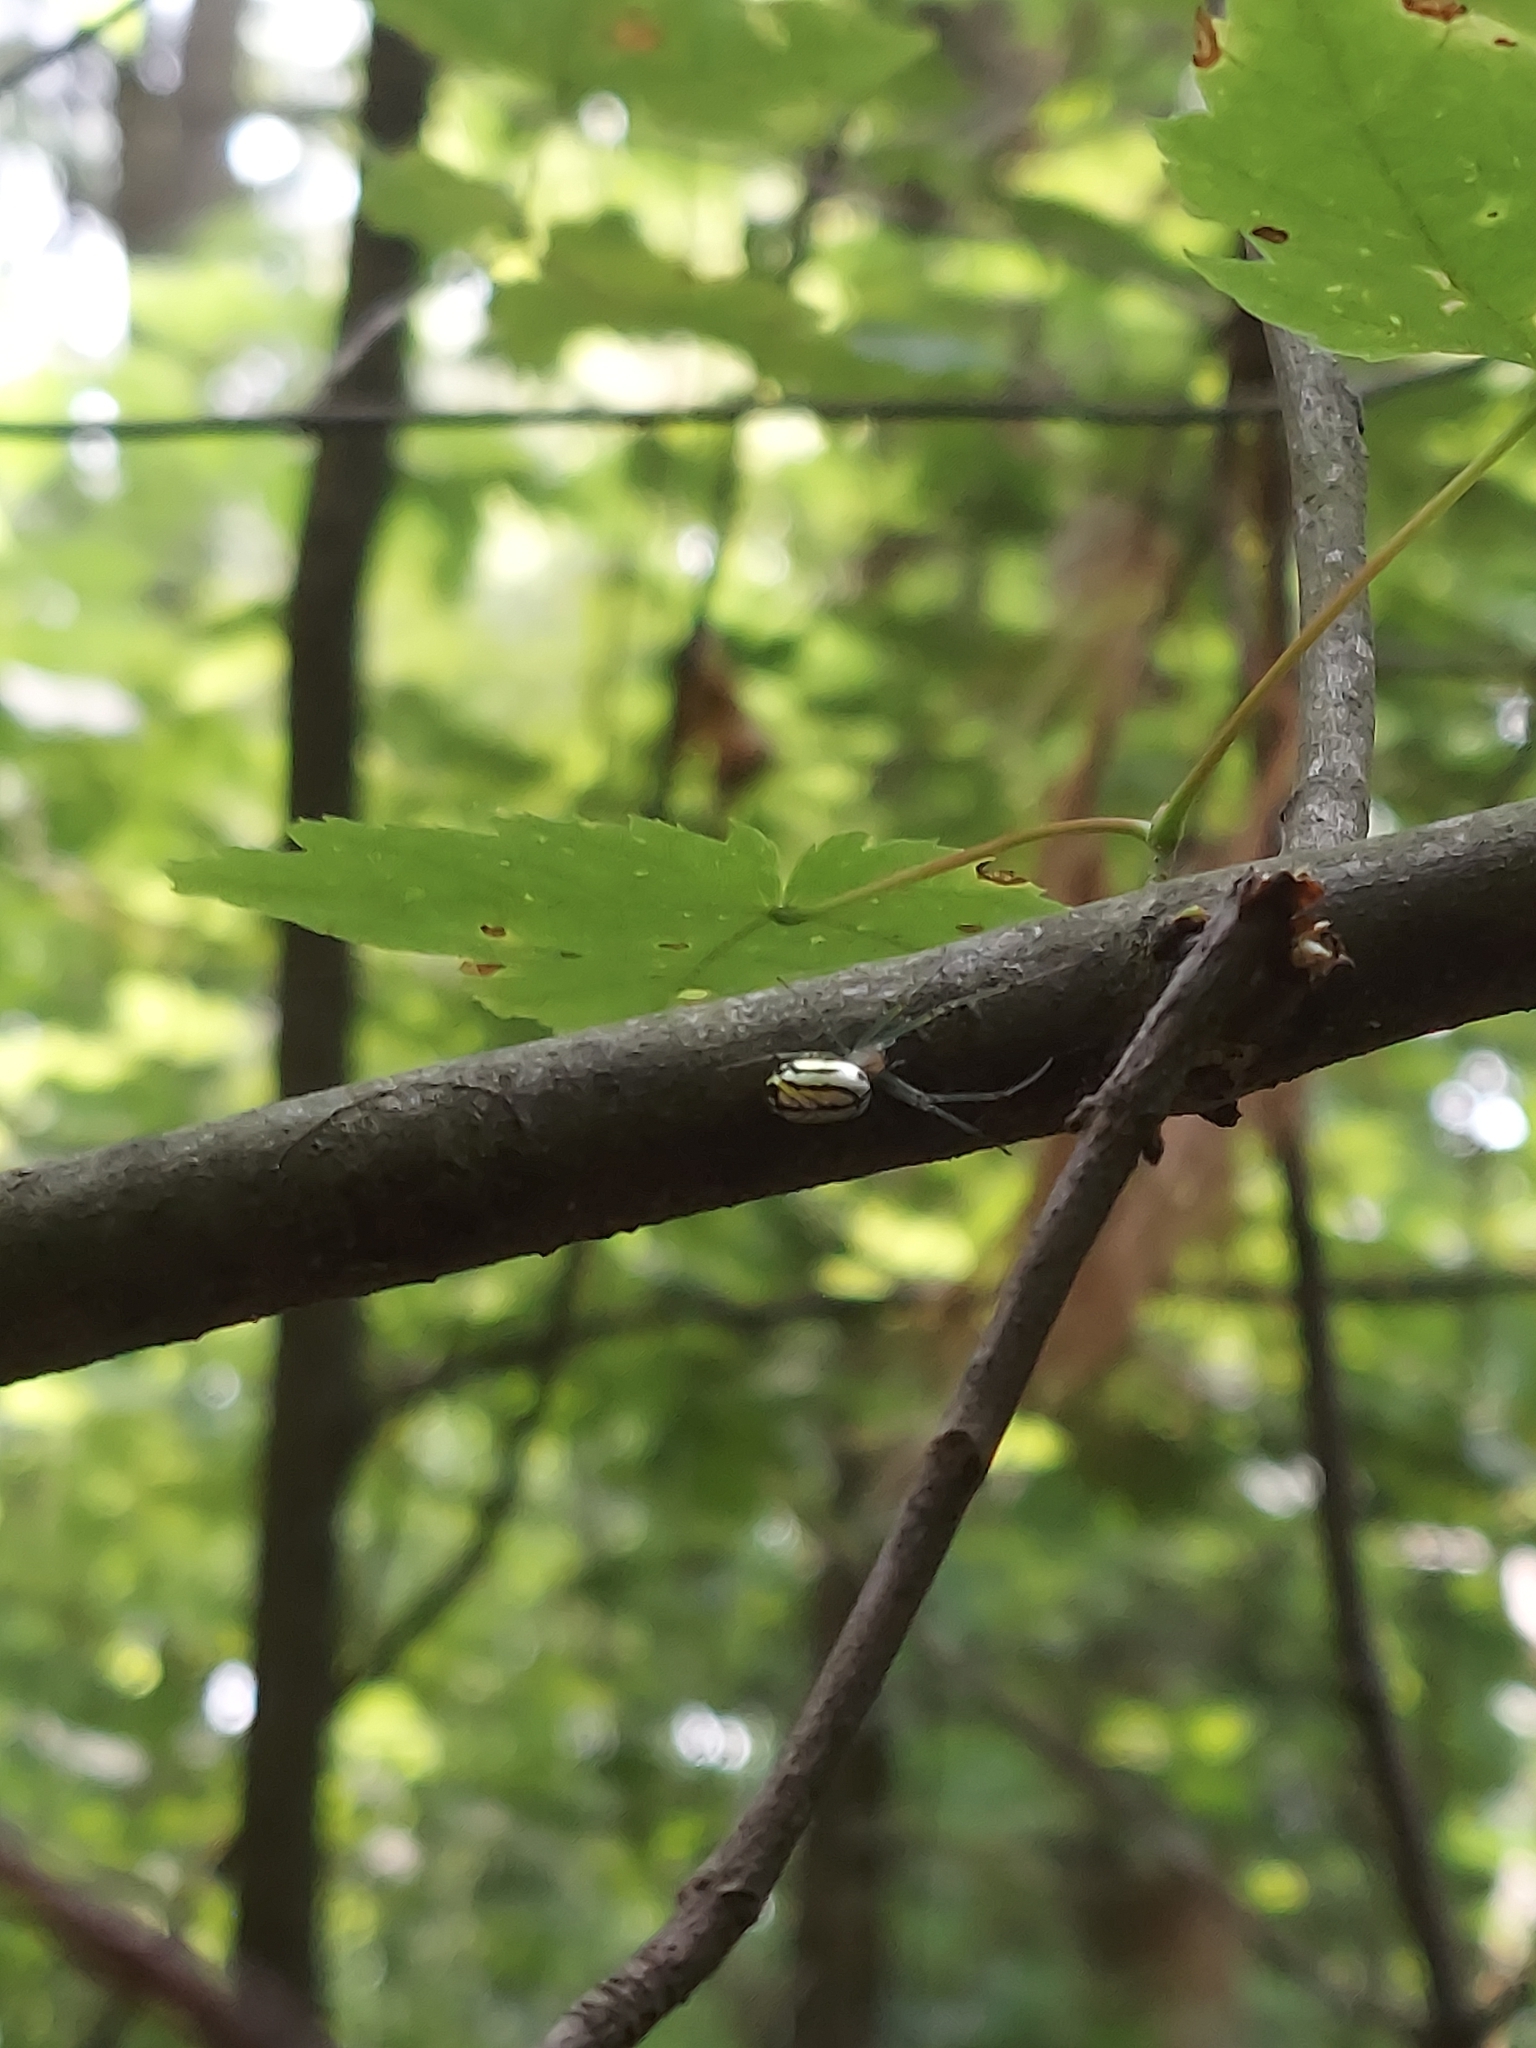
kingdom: Animalia
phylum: Arthropoda
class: Arachnida
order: Araneae
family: Tetragnathidae
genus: Leucauge
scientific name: Leucauge venusta
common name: Longjawed orb weavers
